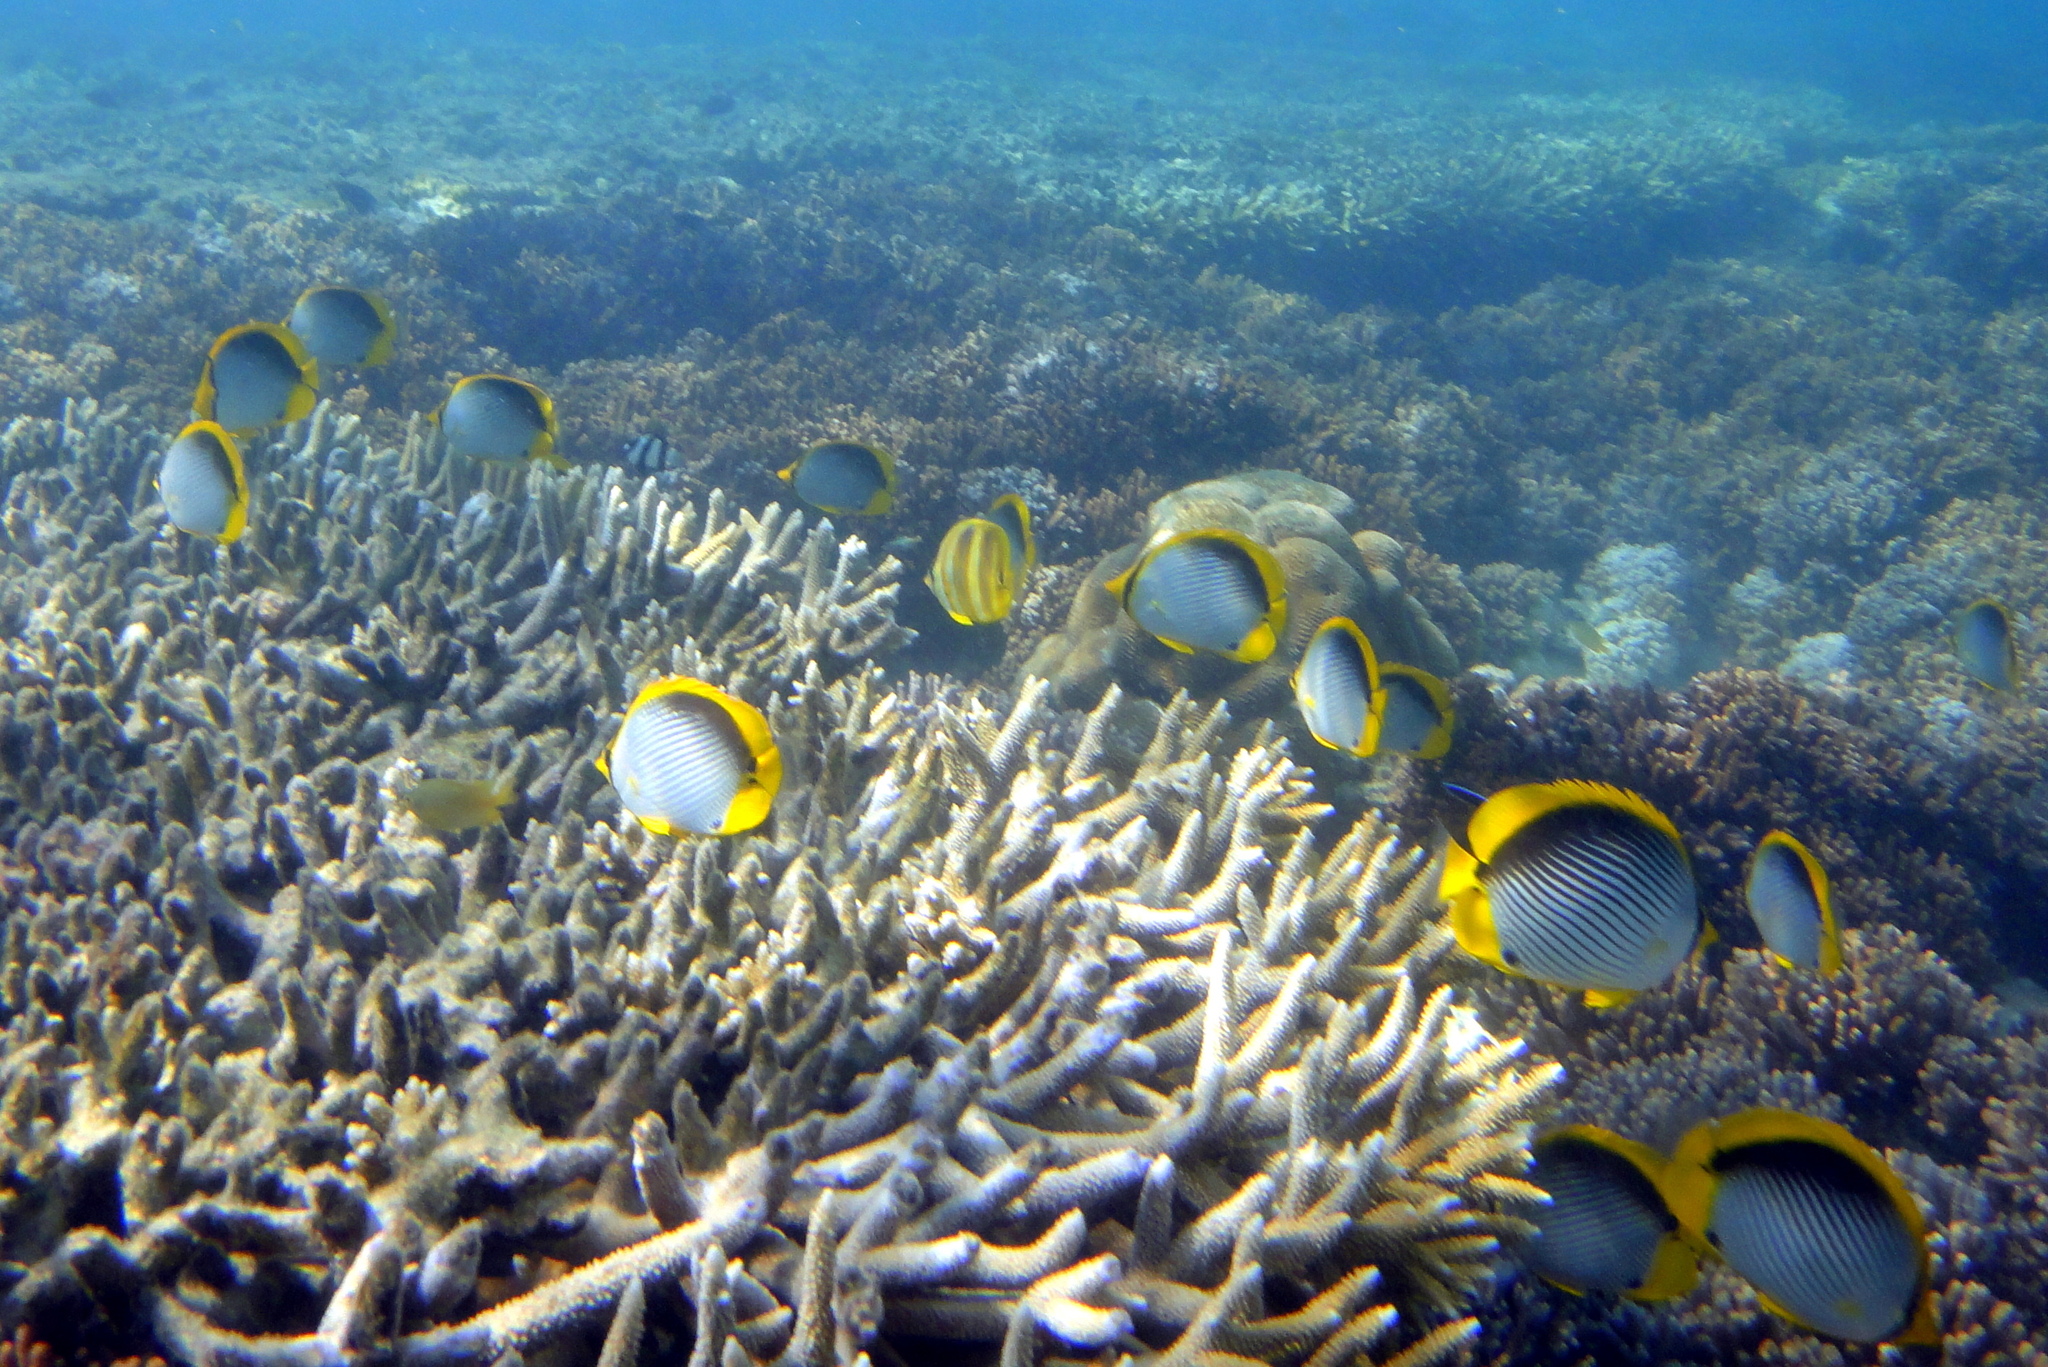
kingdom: Animalia
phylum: Chordata
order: Perciformes
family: Chaetodontidae
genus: Chaetodon
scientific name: Chaetodon melannotus
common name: Blackback butterflyfish
